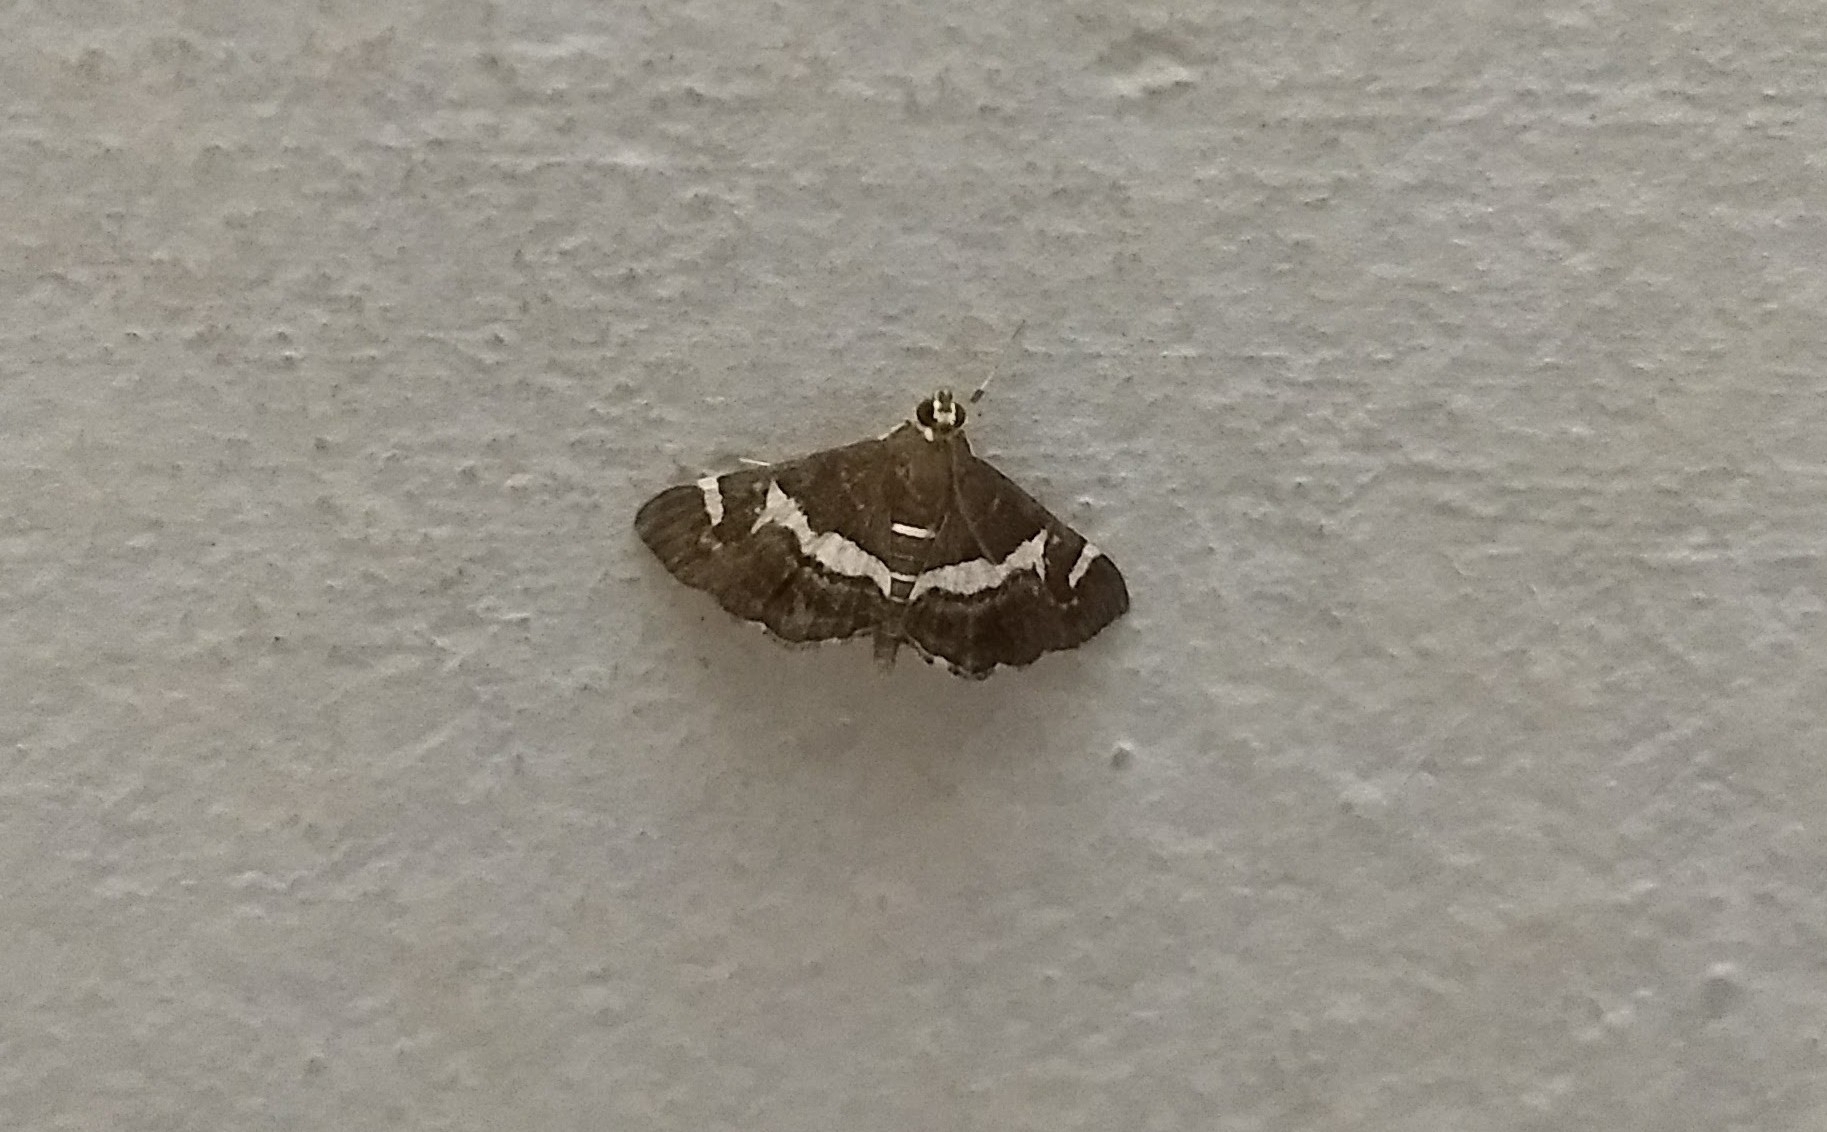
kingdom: Animalia
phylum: Arthropoda
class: Insecta
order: Lepidoptera
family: Crambidae
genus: Spoladea
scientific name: Spoladea recurvalis
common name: Beet webworm moth
